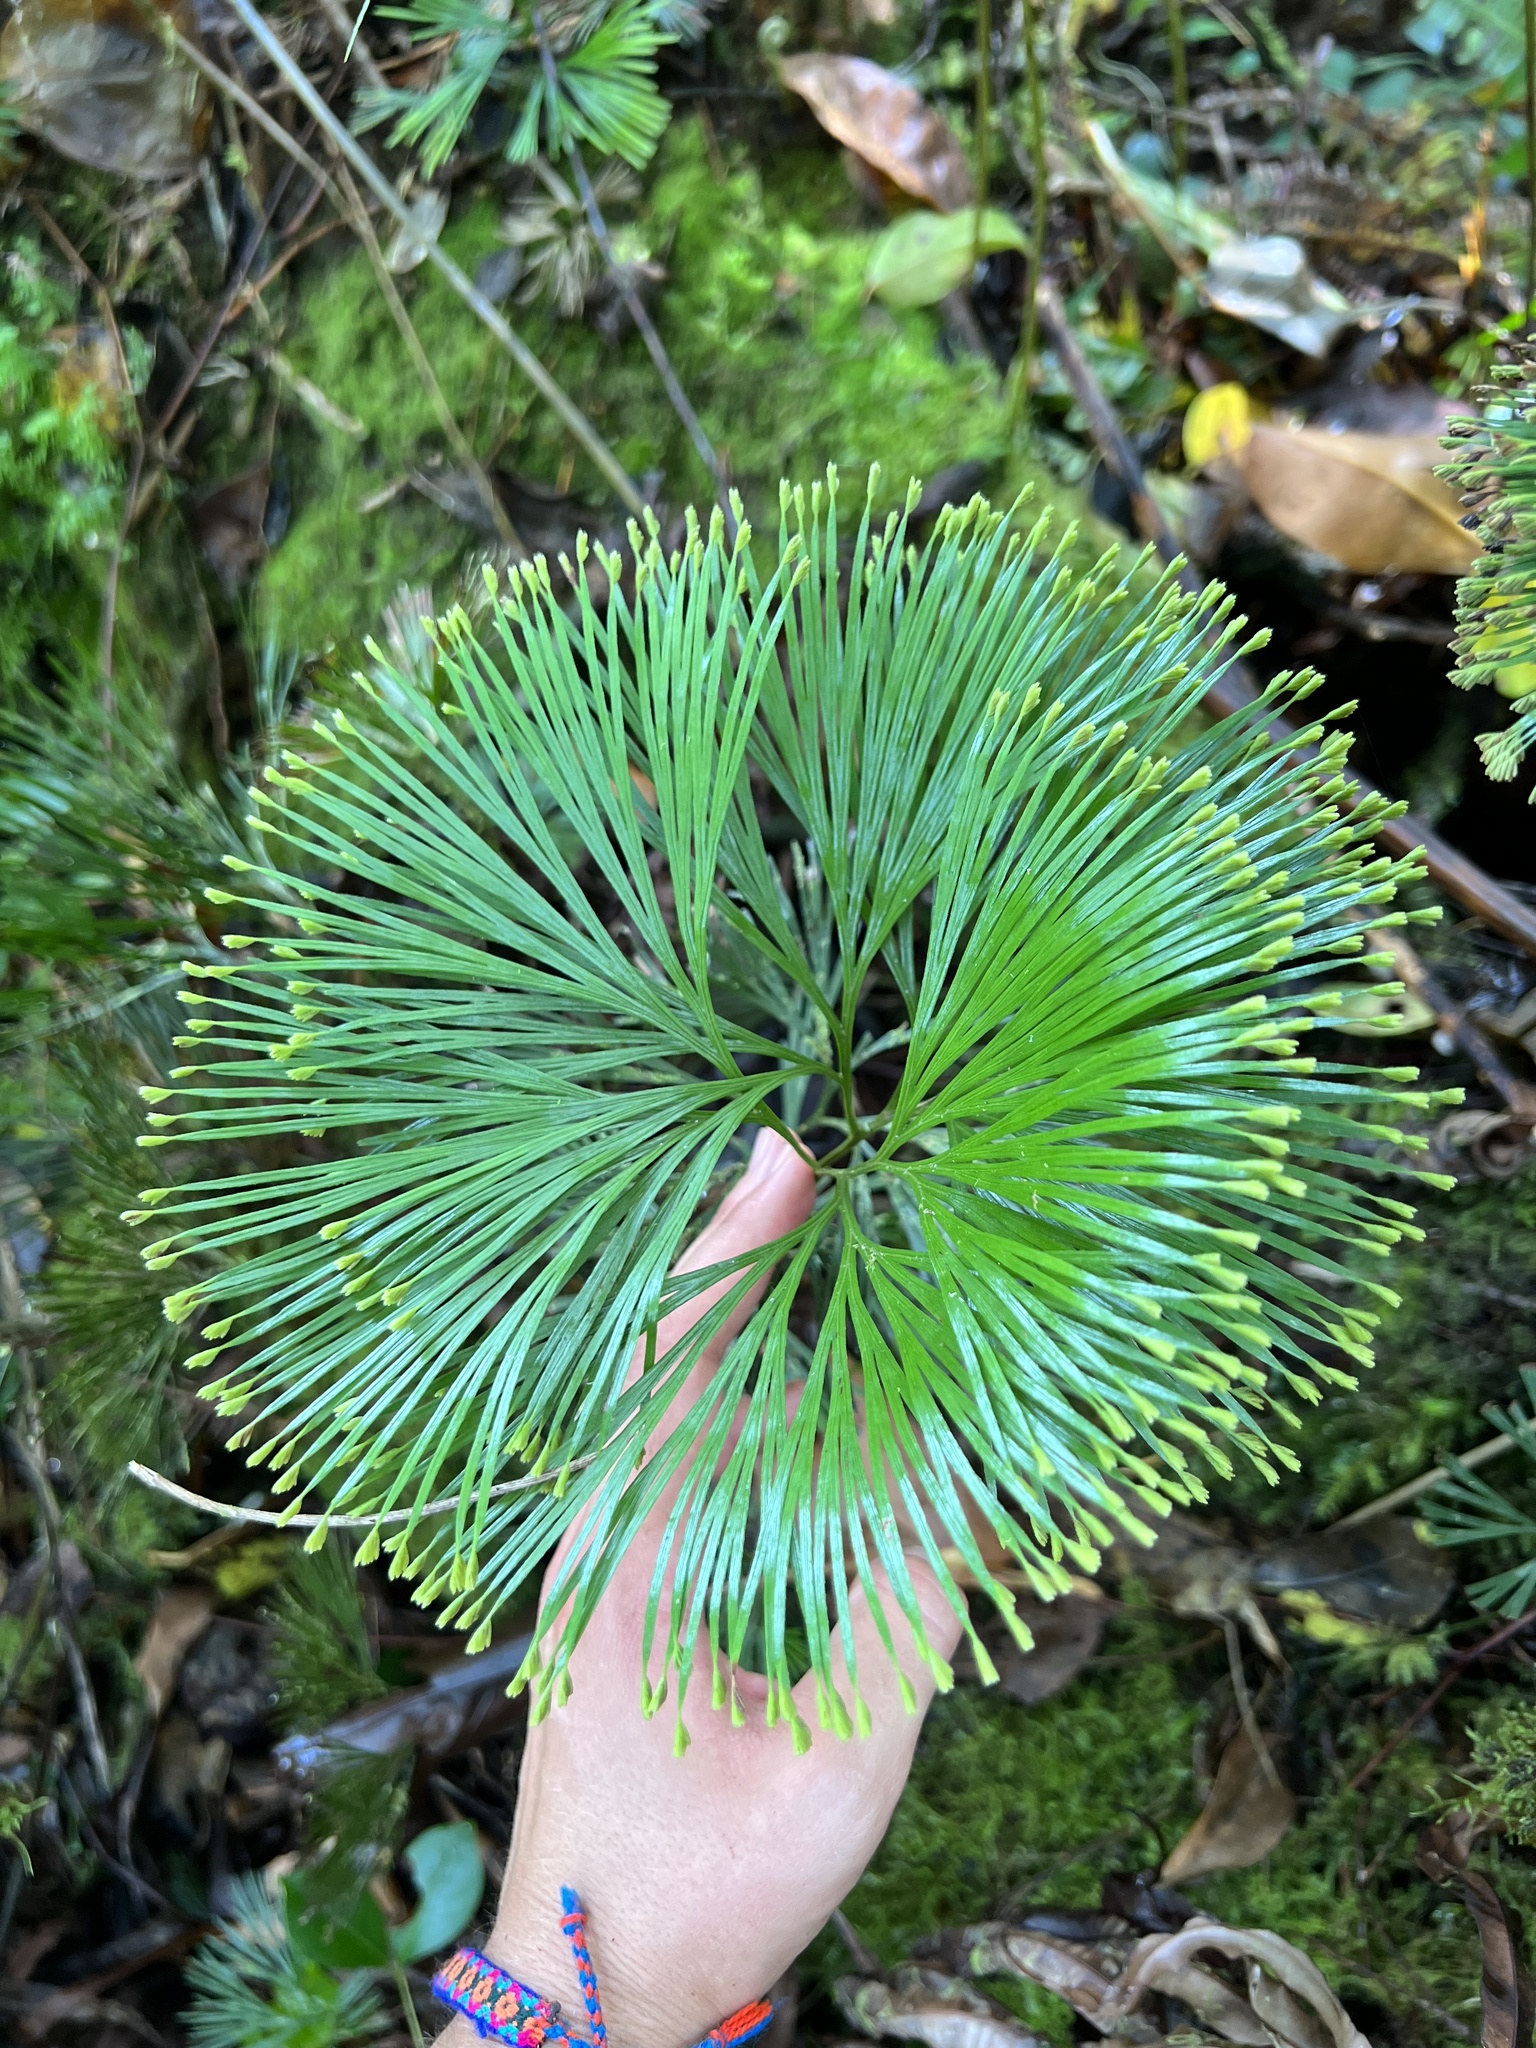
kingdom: Plantae
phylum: Tracheophyta
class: Polypodiopsida
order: Schizaeales
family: Schizaeaceae
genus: Schizaea
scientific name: Schizaea dichotoma
